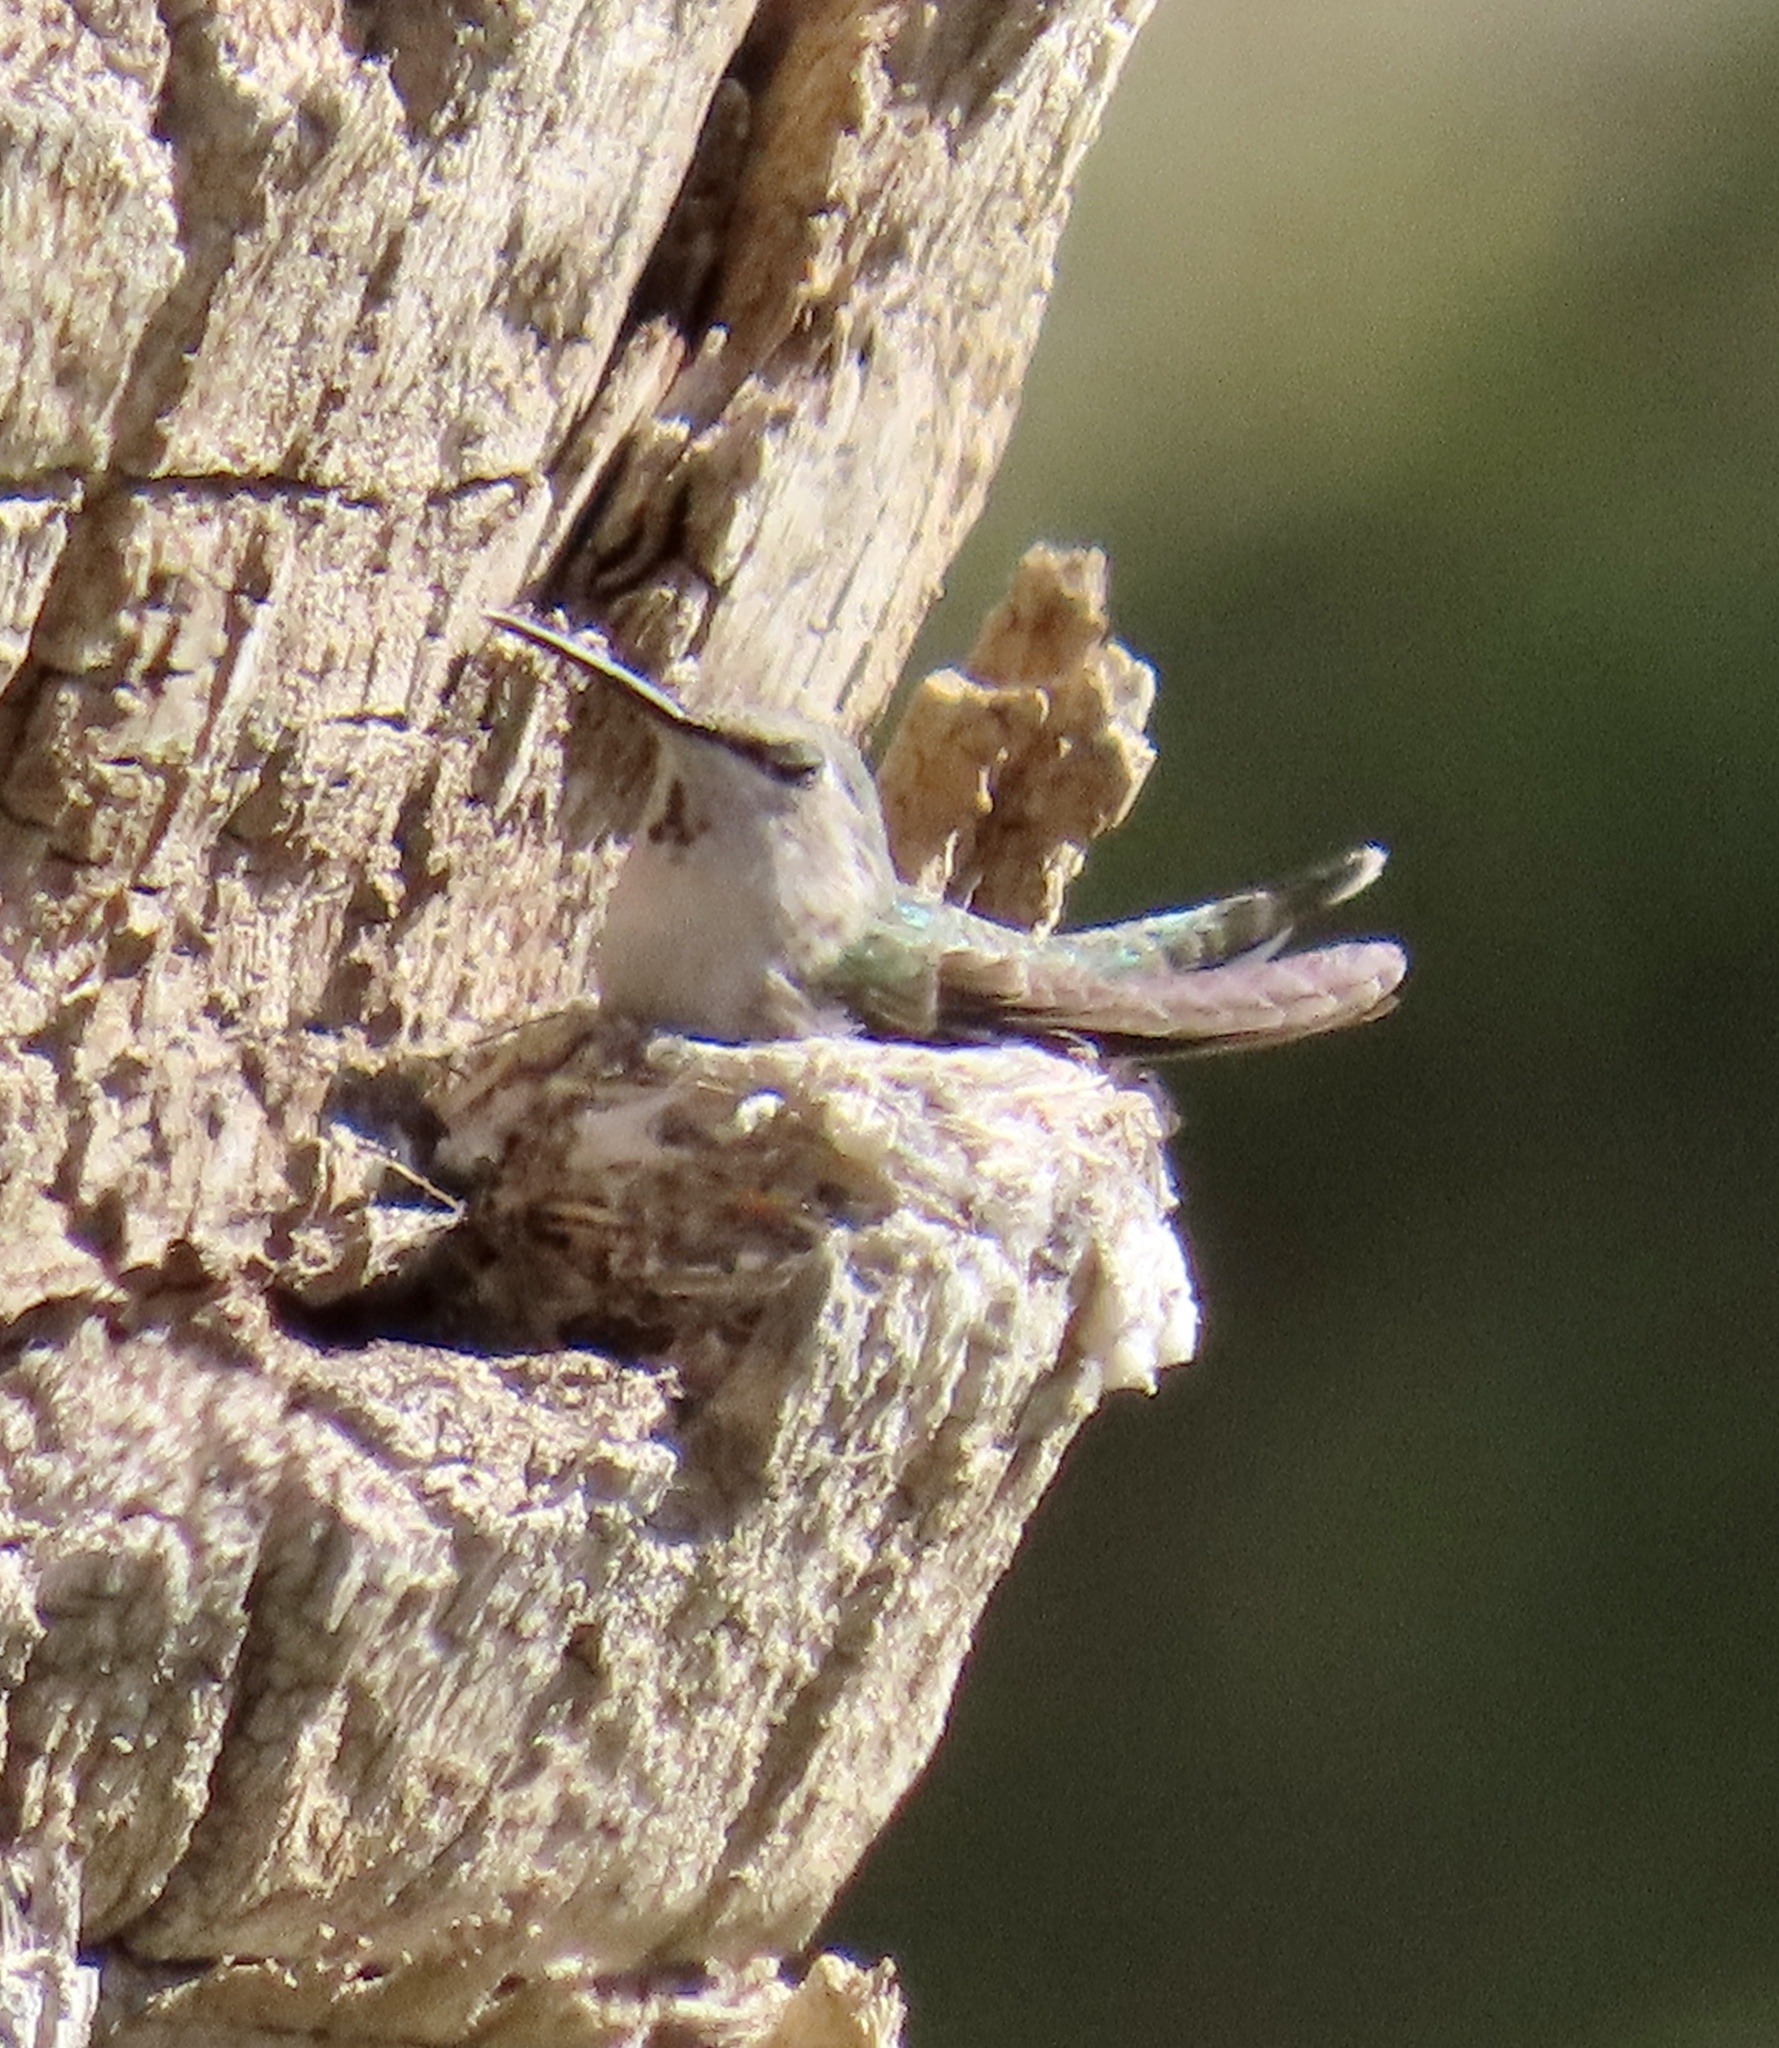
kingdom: Animalia
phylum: Chordata
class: Aves
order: Apodiformes
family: Trochilidae
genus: Calypte
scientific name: Calypte costae
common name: Costa's hummingbird
